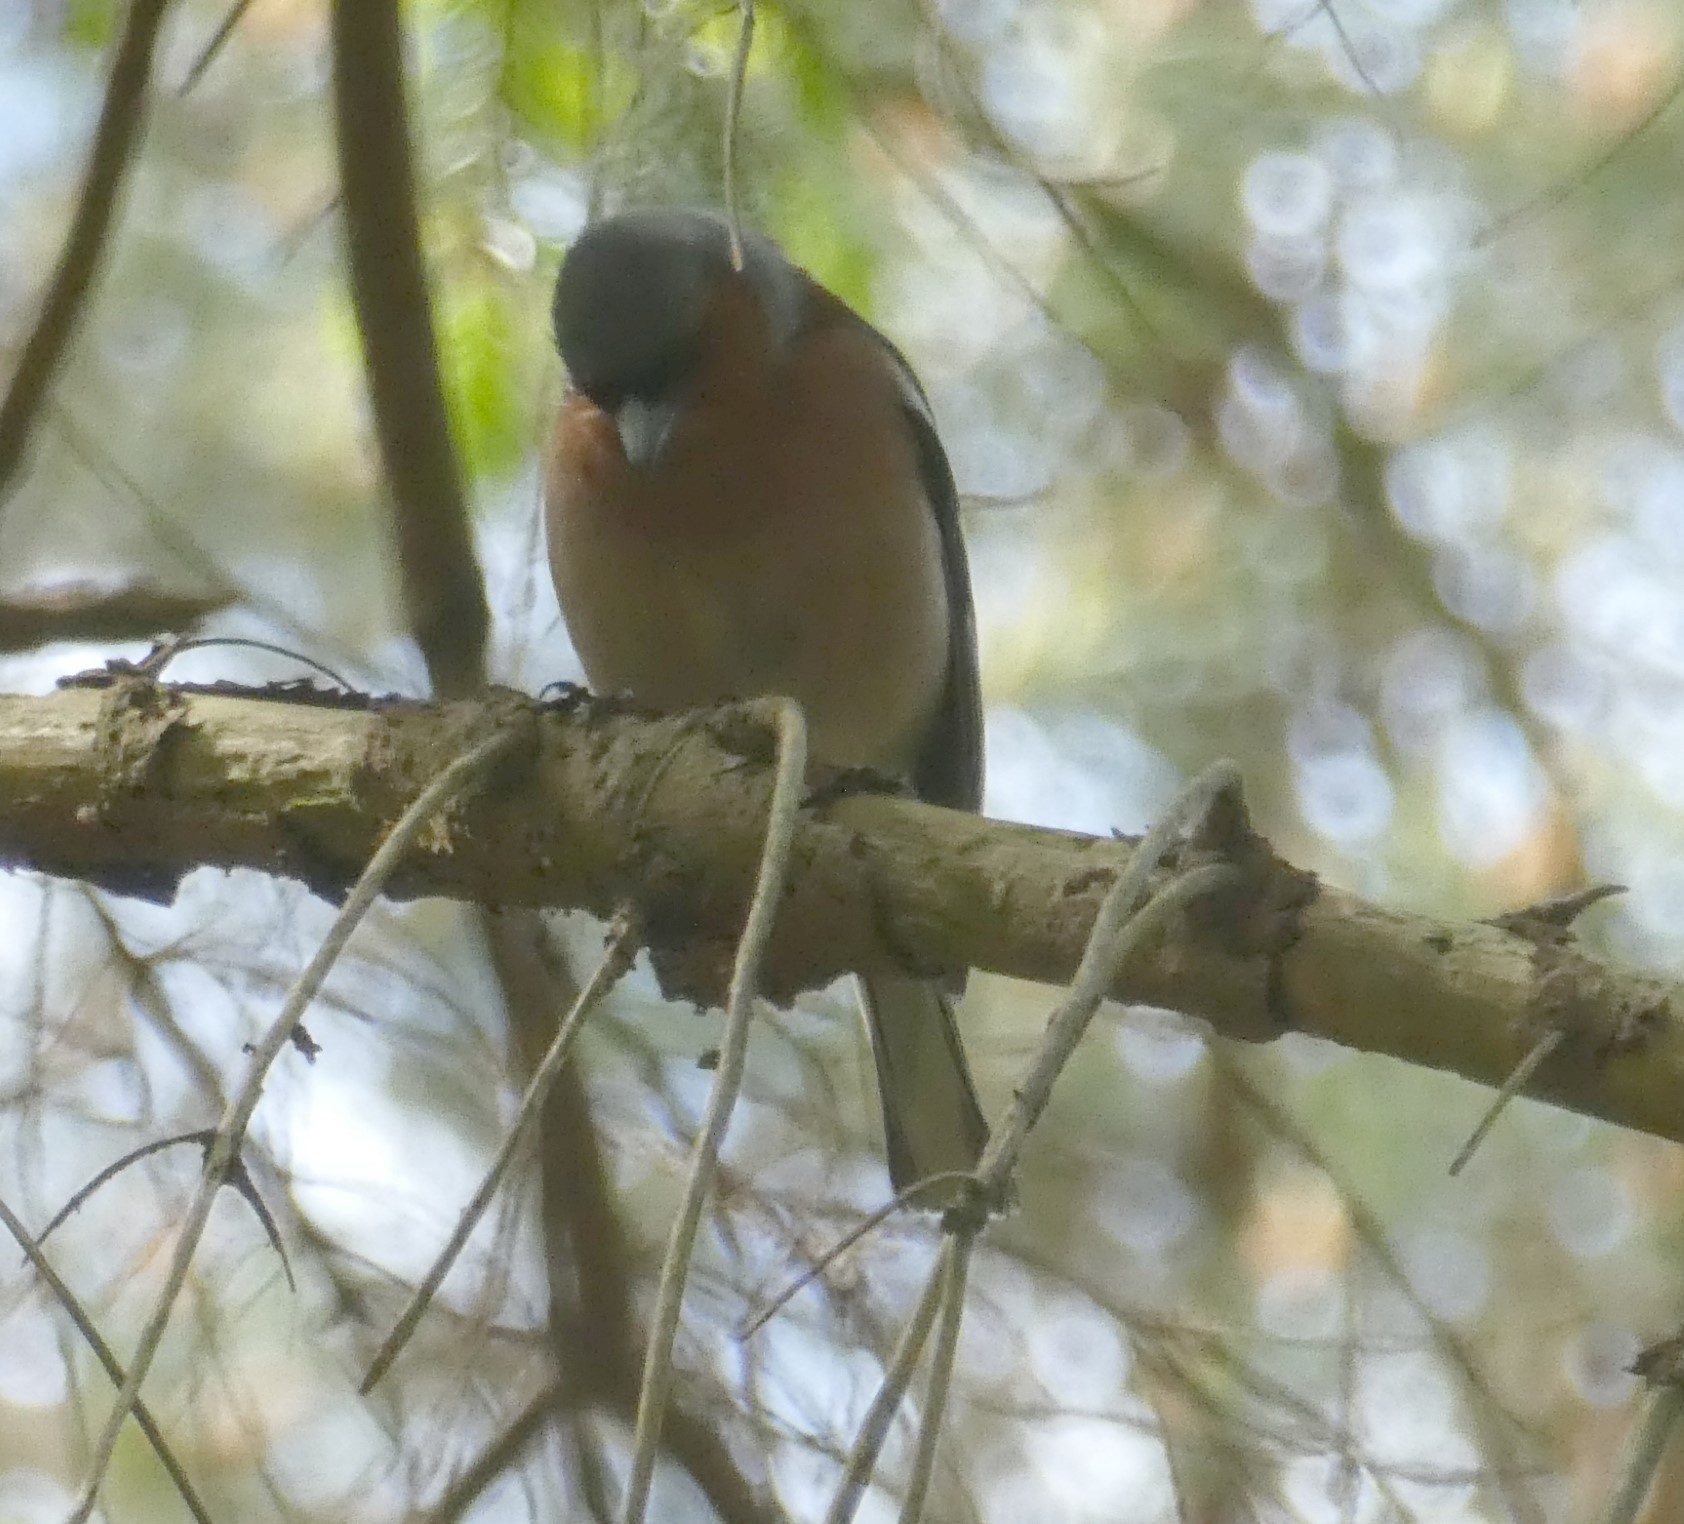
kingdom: Animalia
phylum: Chordata
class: Aves
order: Passeriformes
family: Fringillidae
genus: Fringilla
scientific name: Fringilla coelebs
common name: Common chaffinch
